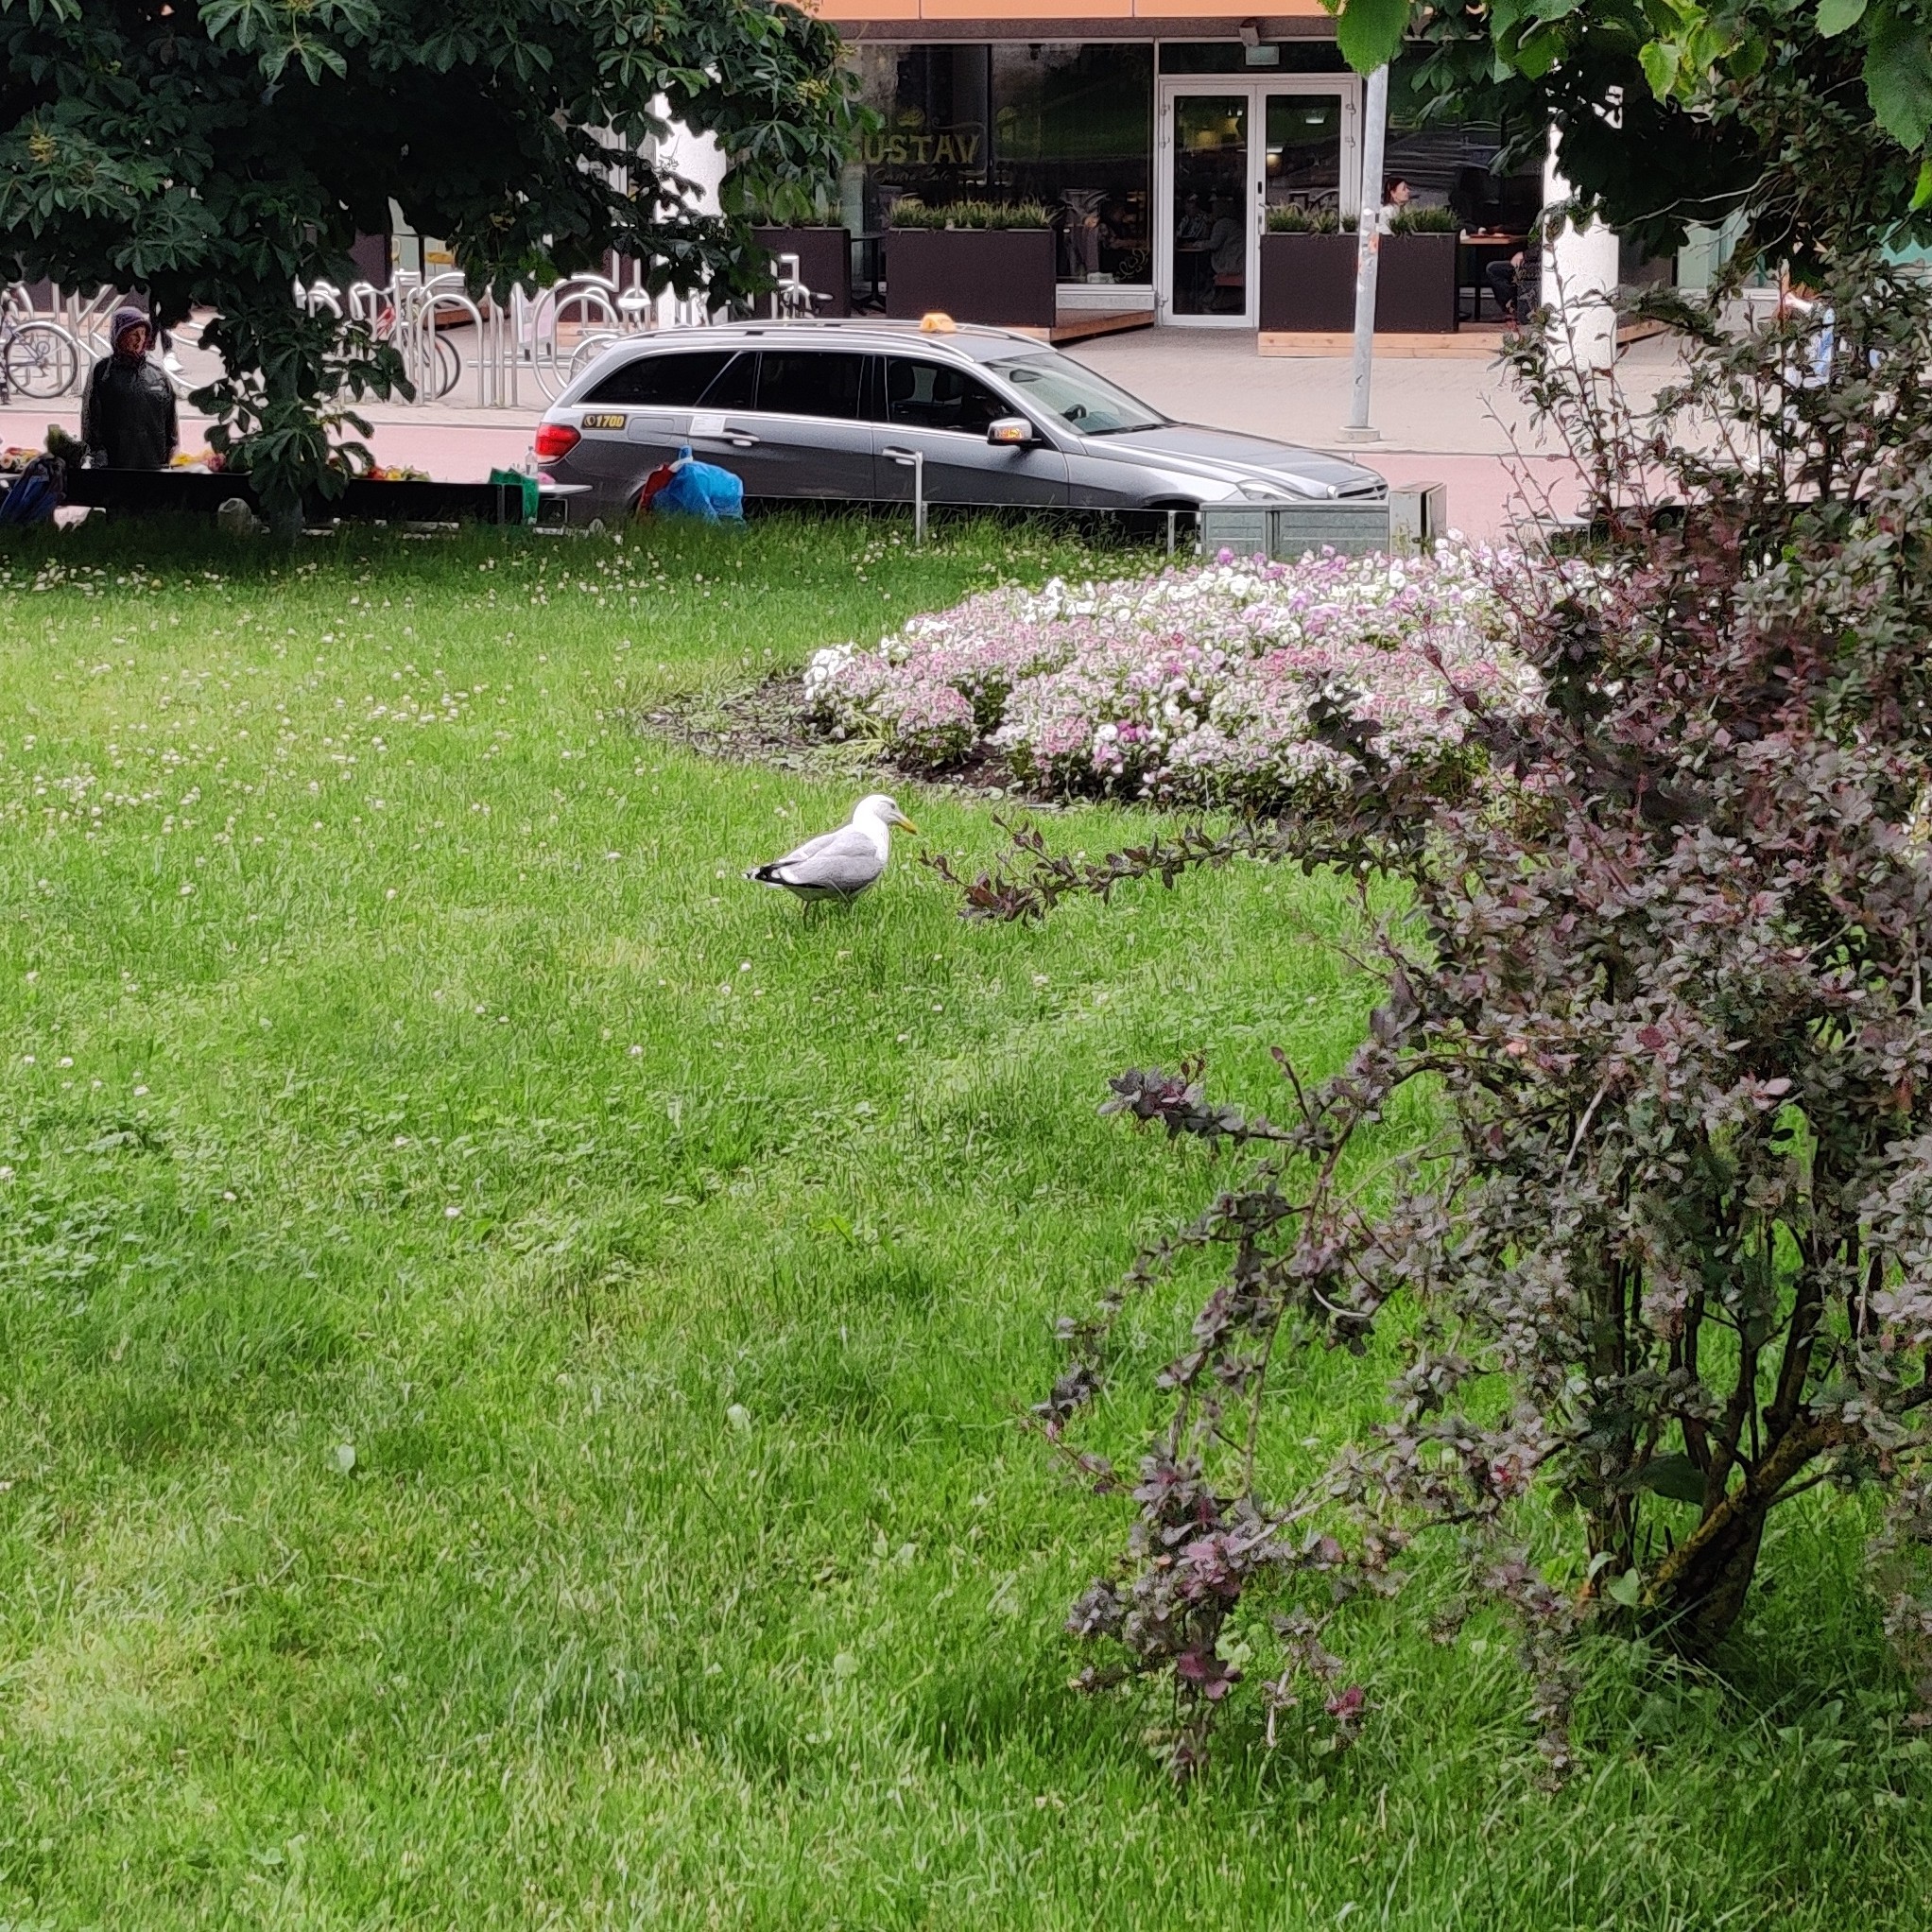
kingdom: Animalia
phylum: Chordata
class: Aves
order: Charadriiformes
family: Laridae
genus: Larus
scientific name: Larus argentatus
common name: Herring gull
